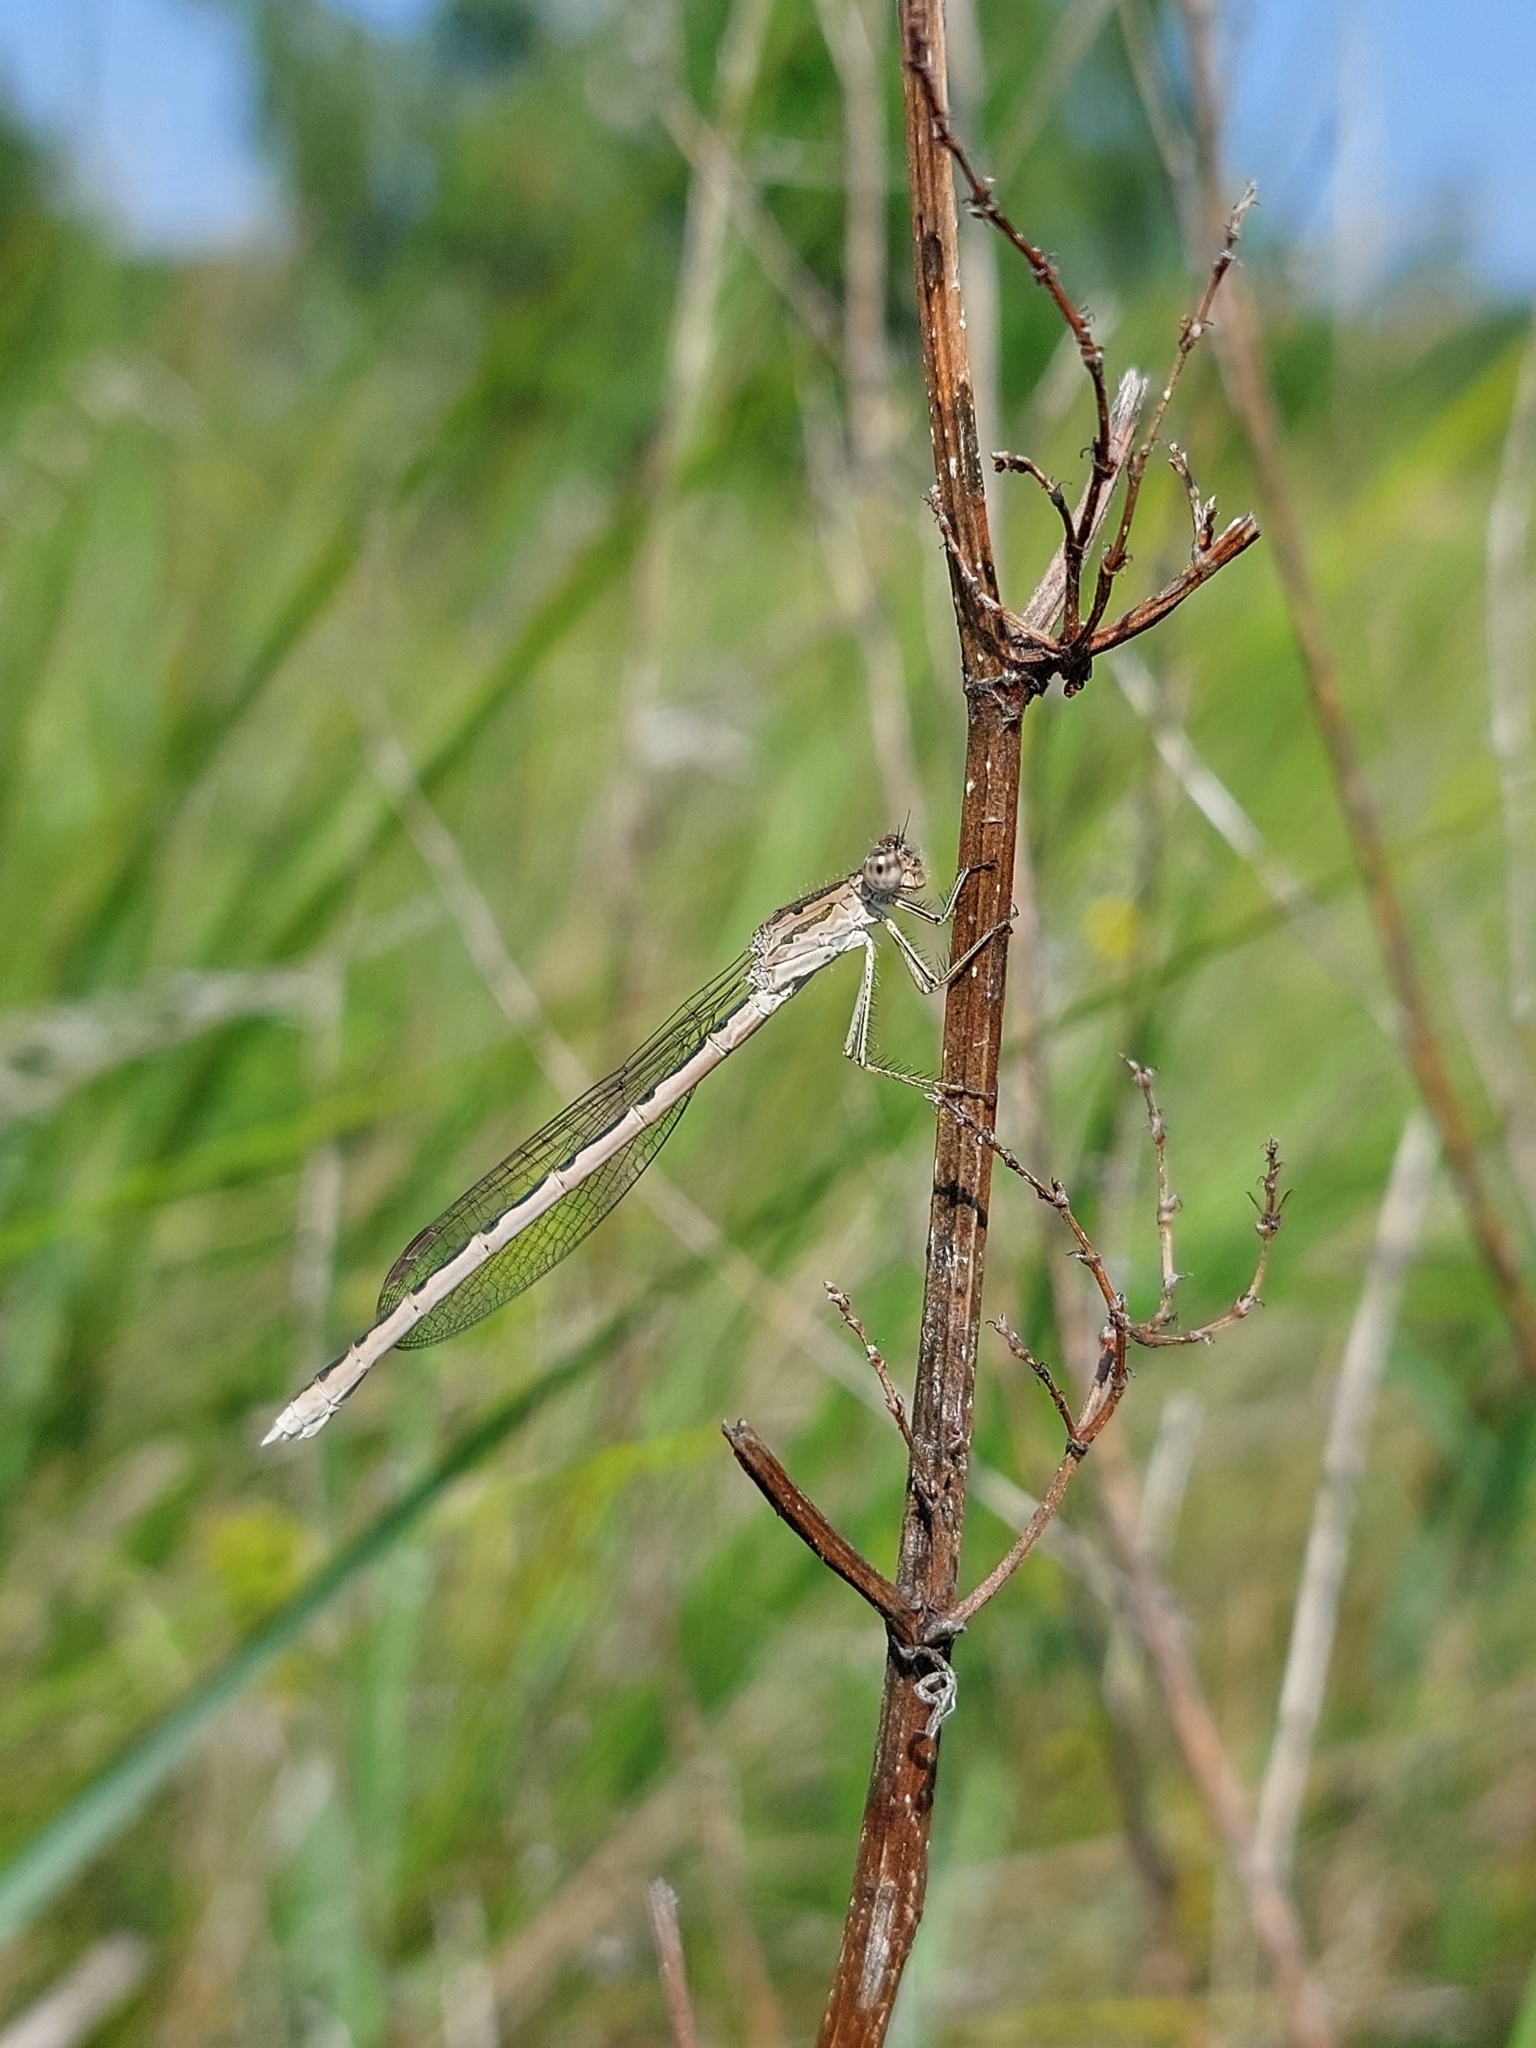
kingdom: Animalia
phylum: Arthropoda
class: Insecta
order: Odonata
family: Lestidae
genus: Sympecma
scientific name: Sympecma paedisca
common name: Siberian winter damsel
